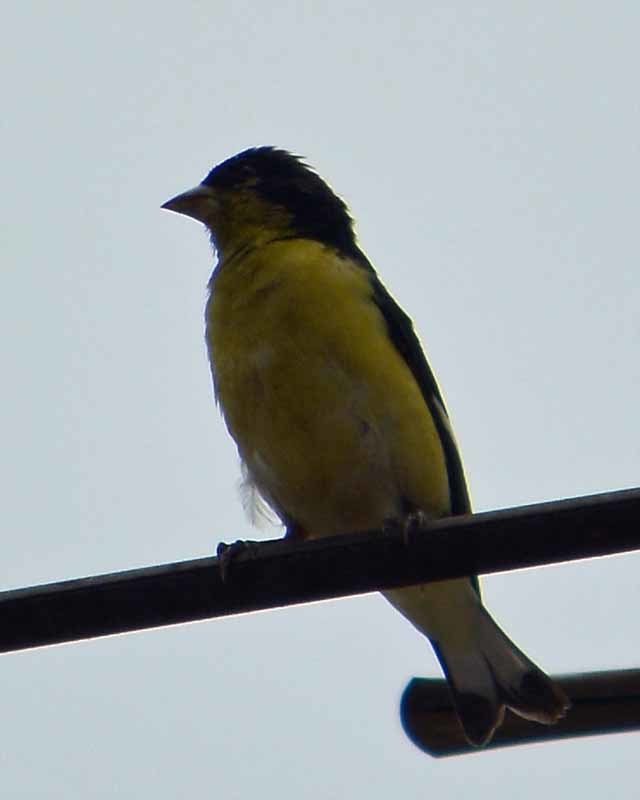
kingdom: Animalia
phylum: Chordata
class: Aves
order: Passeriformes
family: Fringillidae
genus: Spinus
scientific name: Spinus psaltria
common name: Lesser goldfinch
